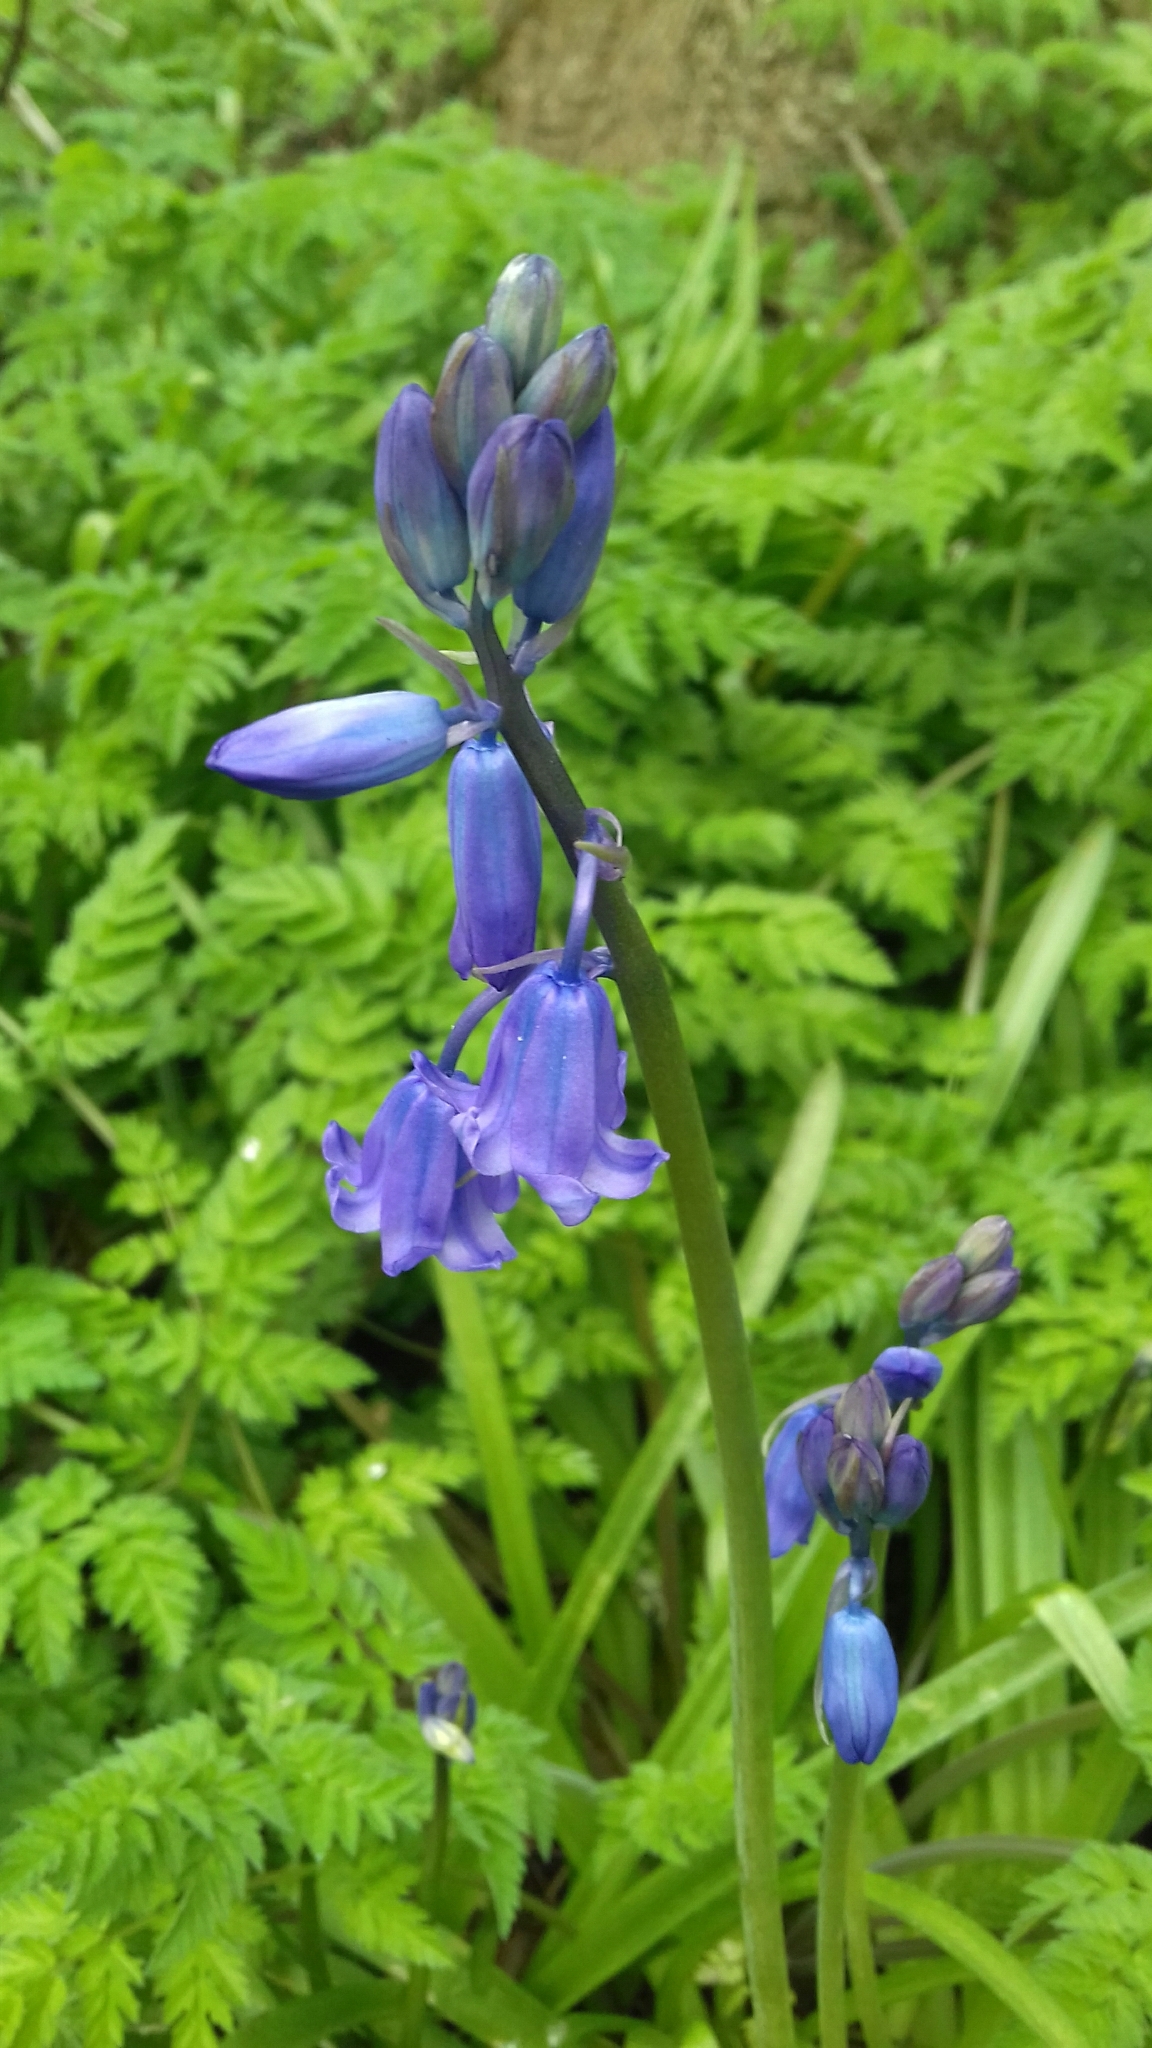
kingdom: Plantae
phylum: Tracheophyta
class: Liliopsida
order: Asparagales
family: Asparagaceae
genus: Hyacinthoides
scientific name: Hyacinthoides non-scripta
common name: Bluebell
